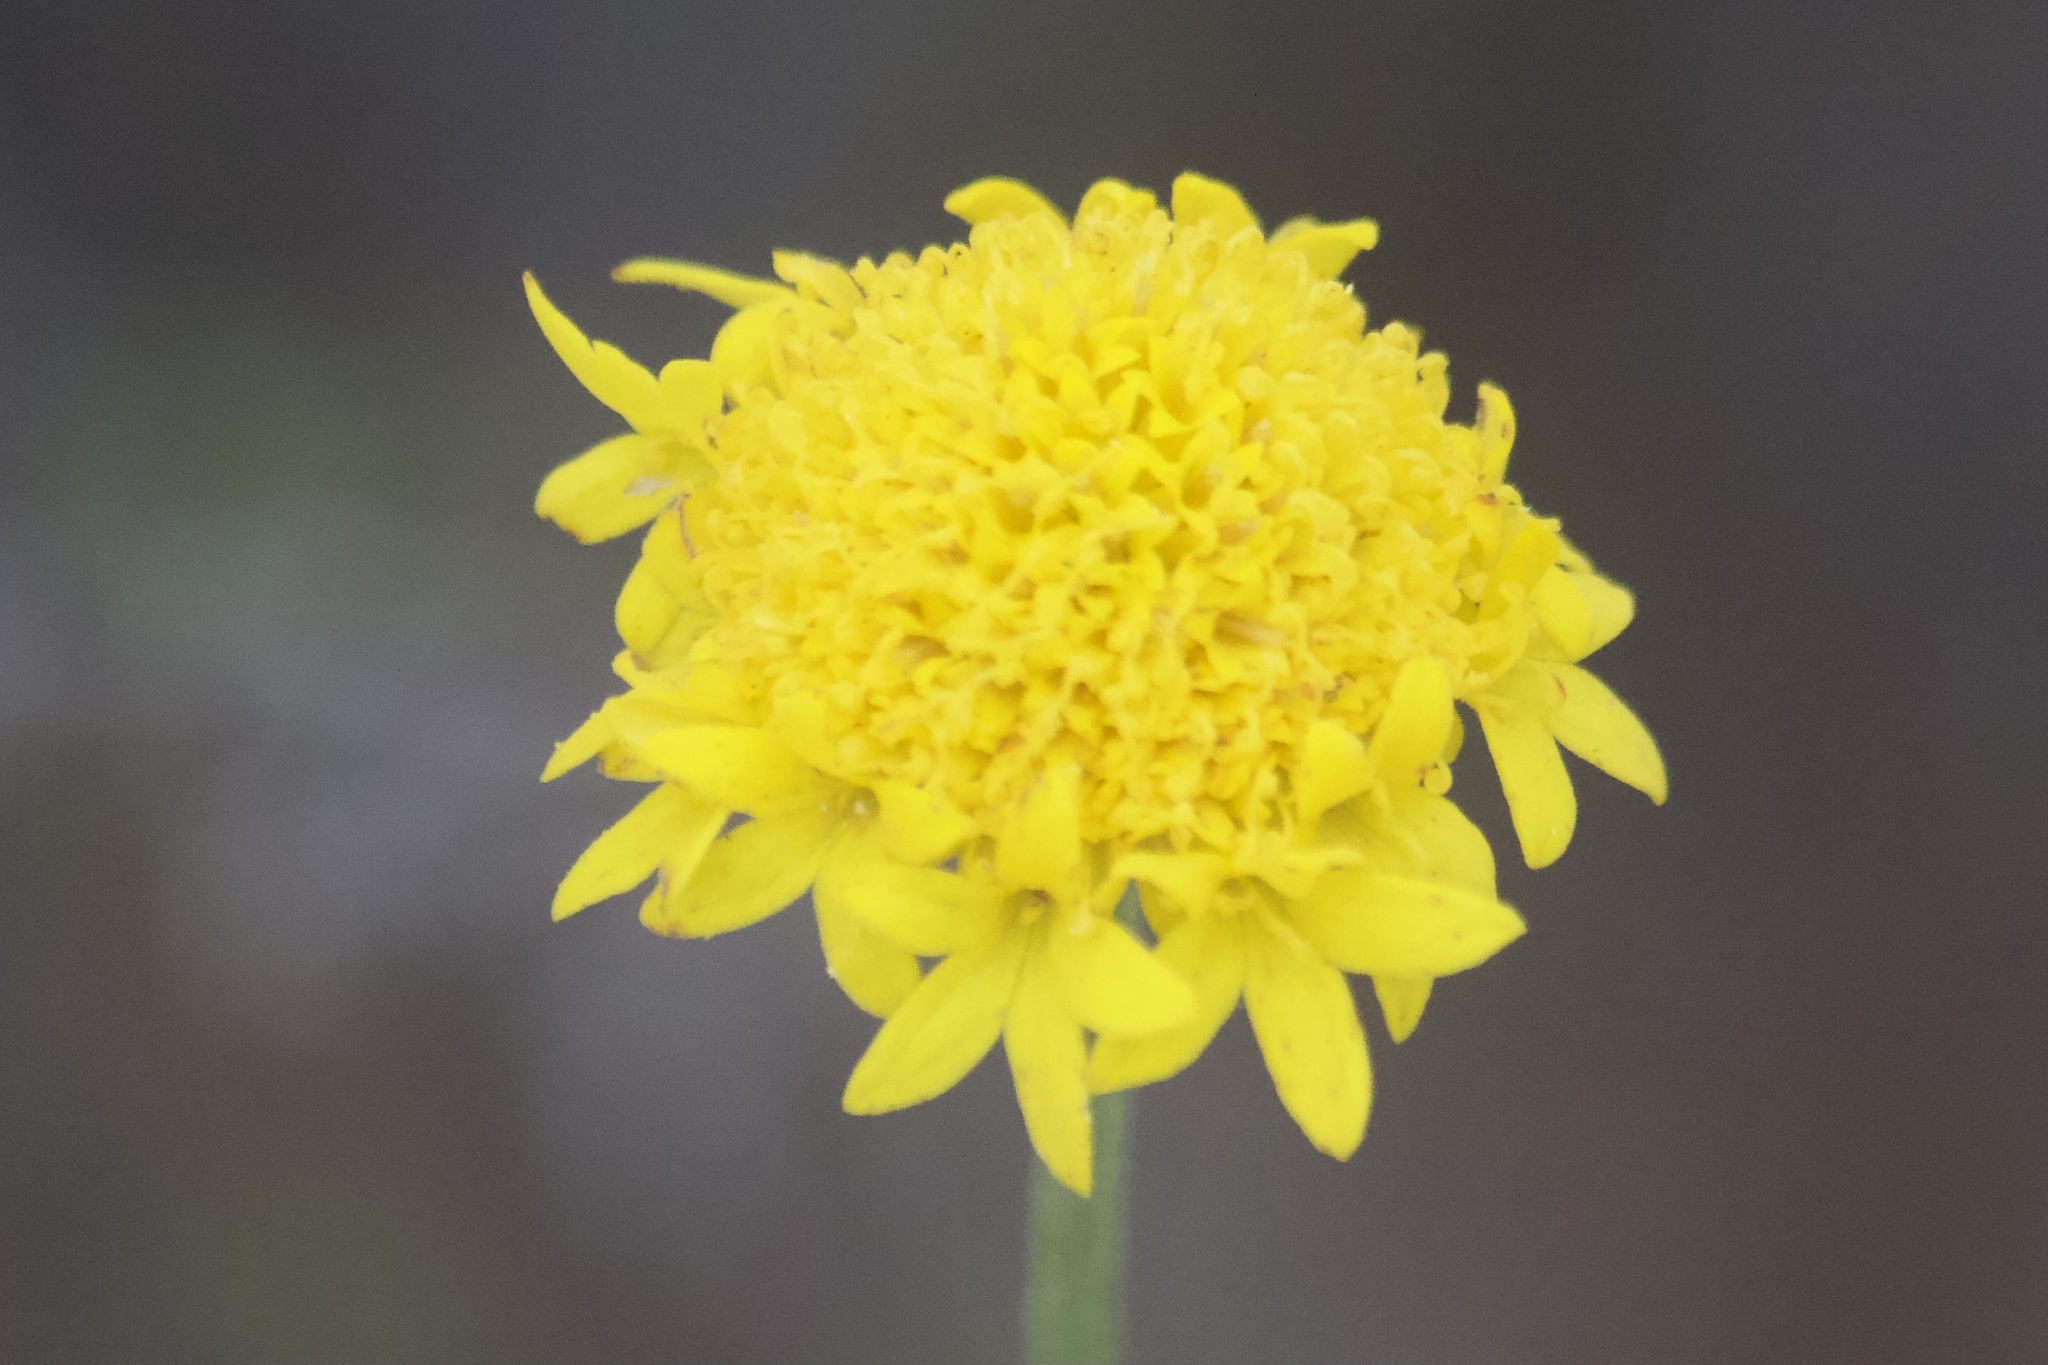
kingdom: Plantae
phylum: Tracheophyta
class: Magnoliopsida
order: Asterales
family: Asteraceae
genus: Chaenactis
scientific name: Chaenactis glabriuscula
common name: Yellow pincushion
